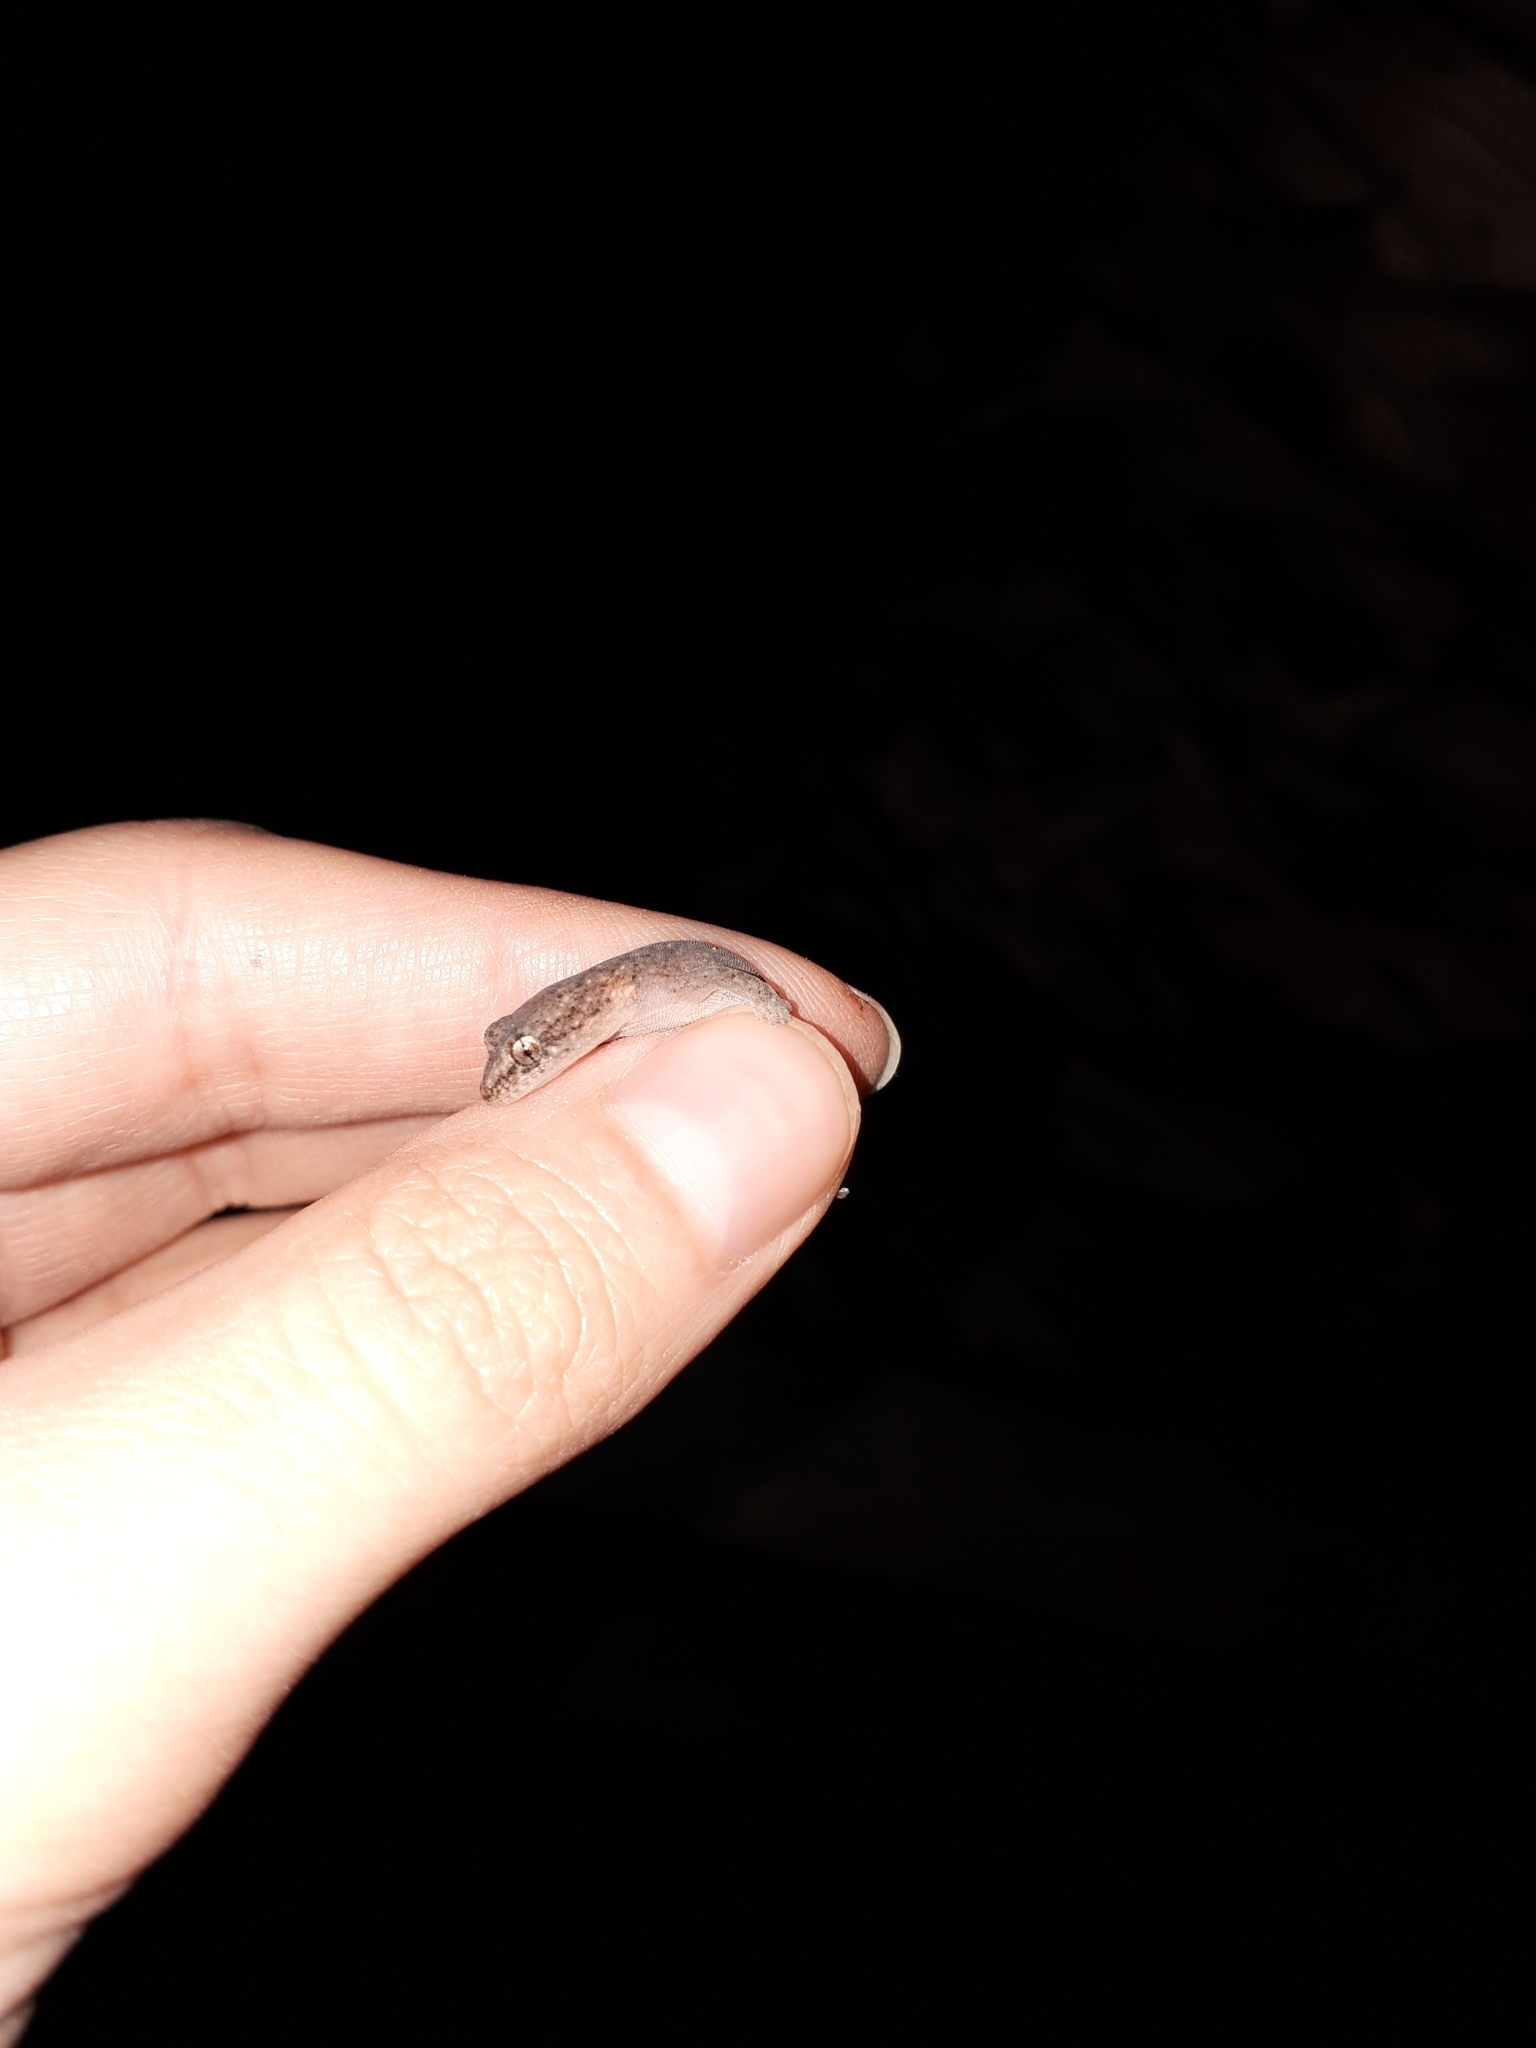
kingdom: Animalia
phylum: Chordata
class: Squamata
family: Gekkonidae
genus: Afrogecko
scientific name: Afrogecko porphyreus
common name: Marbled leaf-toed gecko
